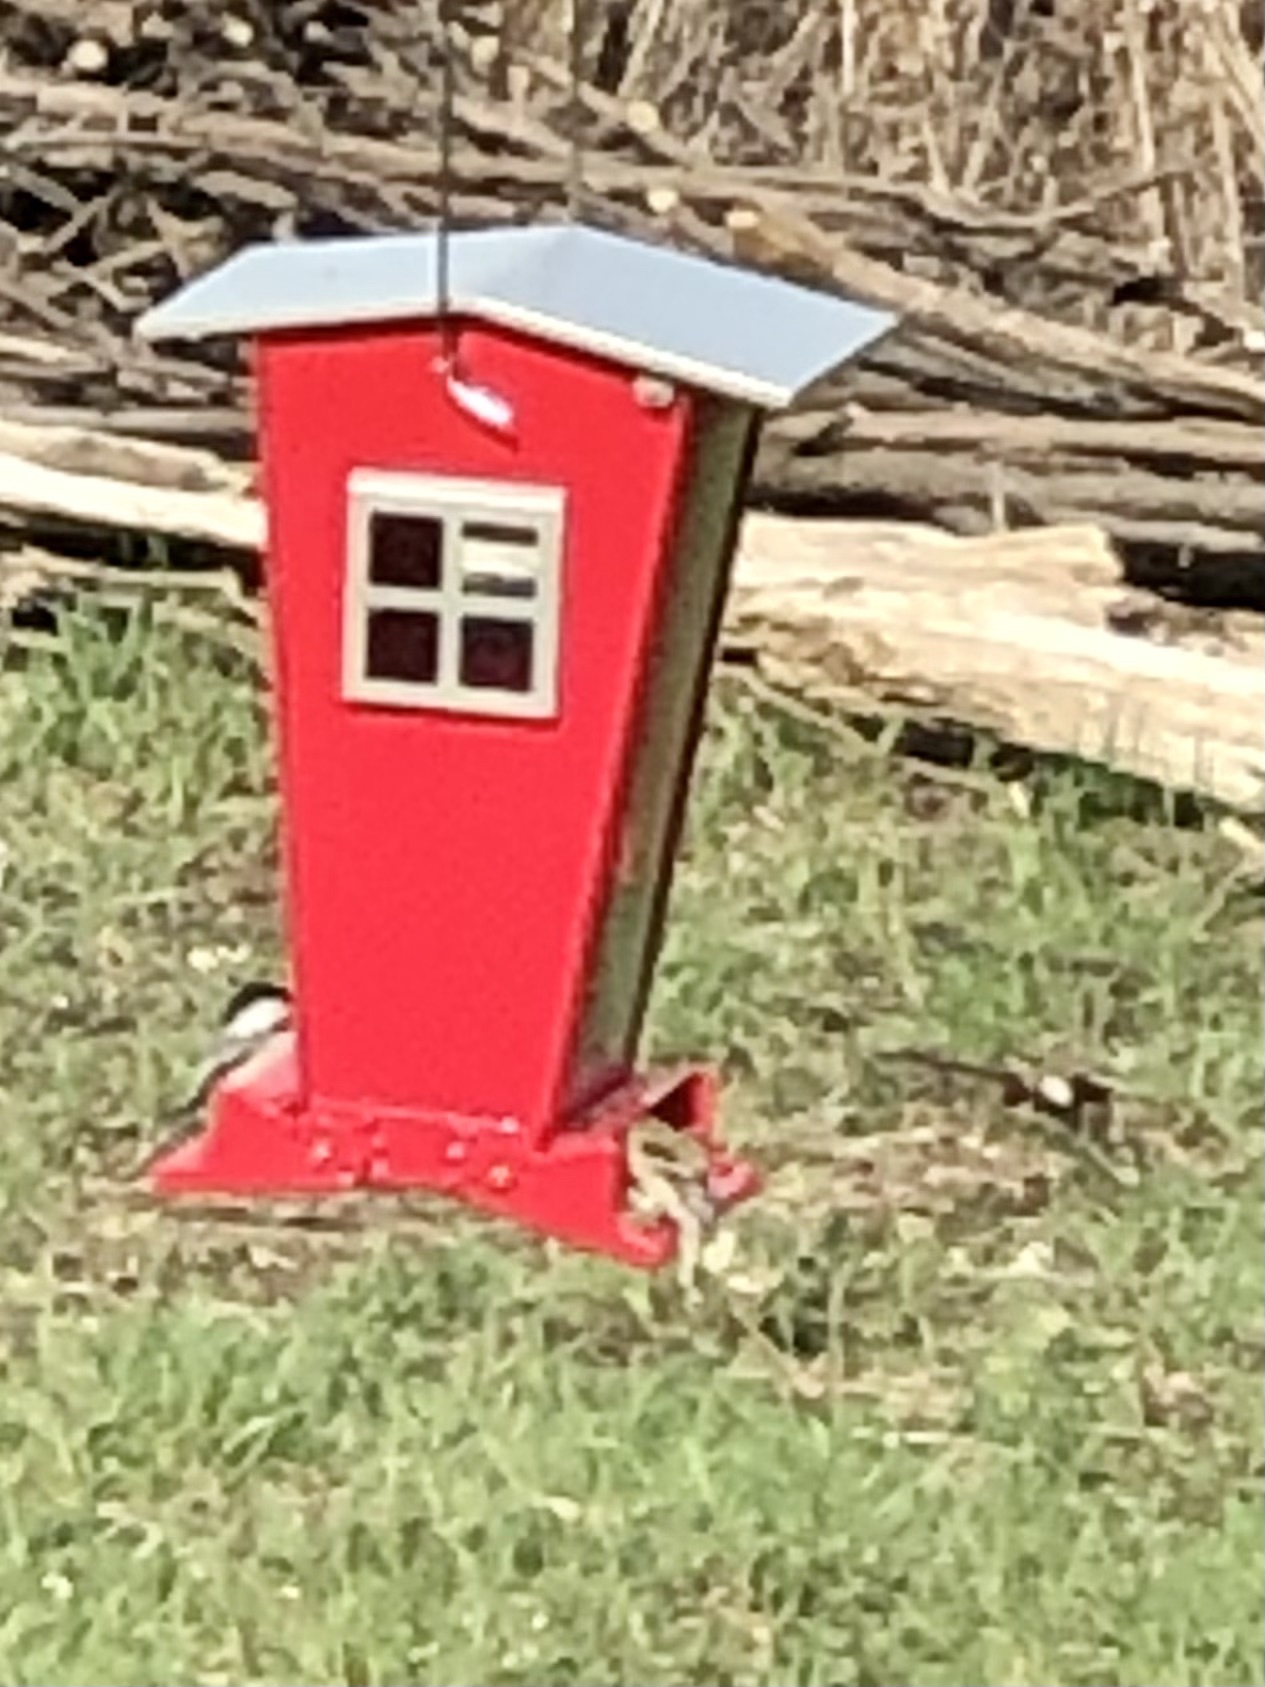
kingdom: Animalia
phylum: Chordata
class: Aves
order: Passeriformes
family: Fringillidae
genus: Spinus
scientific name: Spinus tristis
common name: American goldfinch
